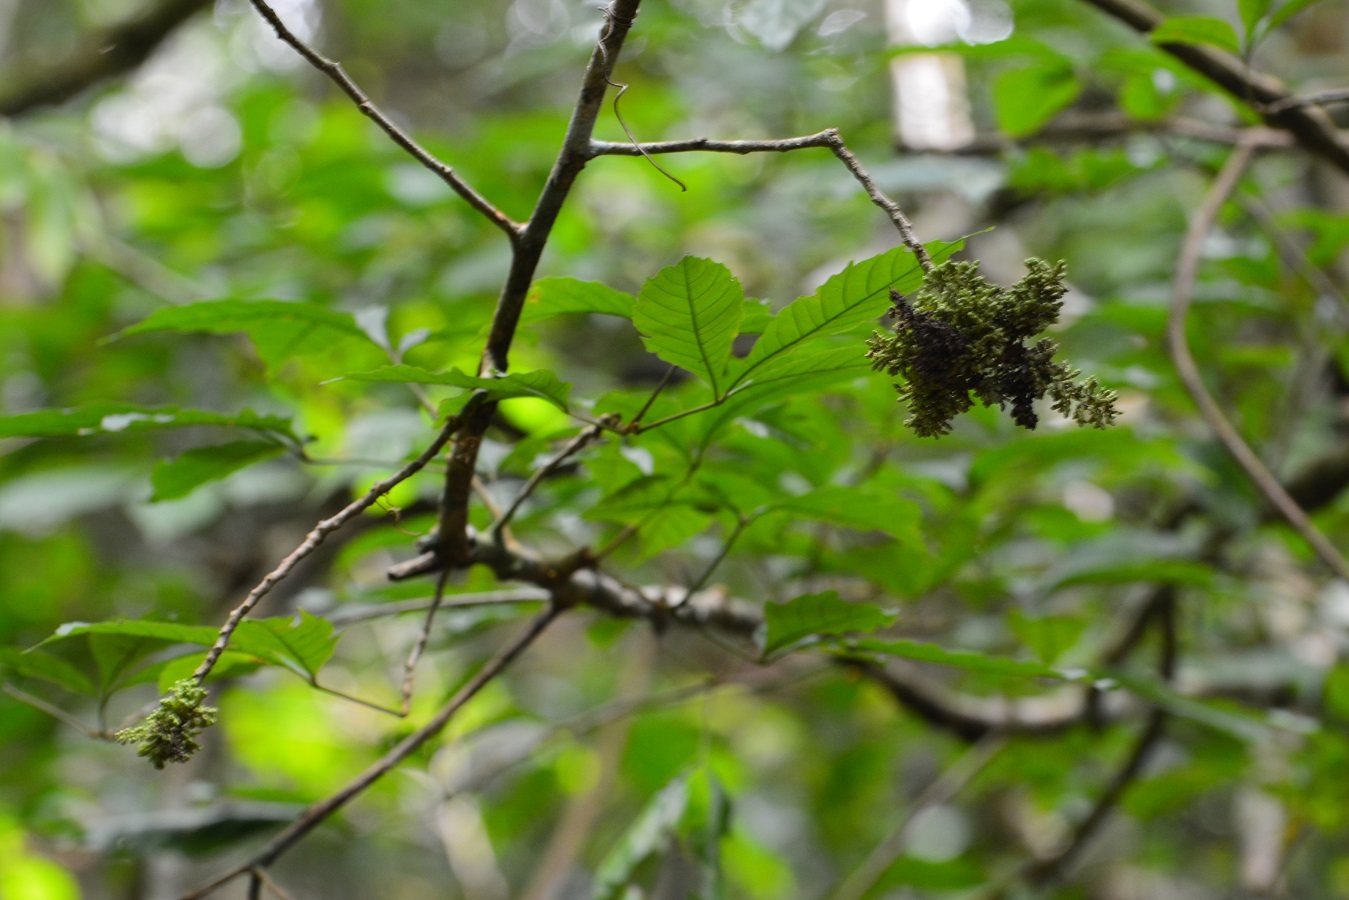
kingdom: Plantae
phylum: Tracheophyta
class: Magnoliopsida
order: Sapindales
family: Meliaceae
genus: Trichilia
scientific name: Trichilia trifolia
